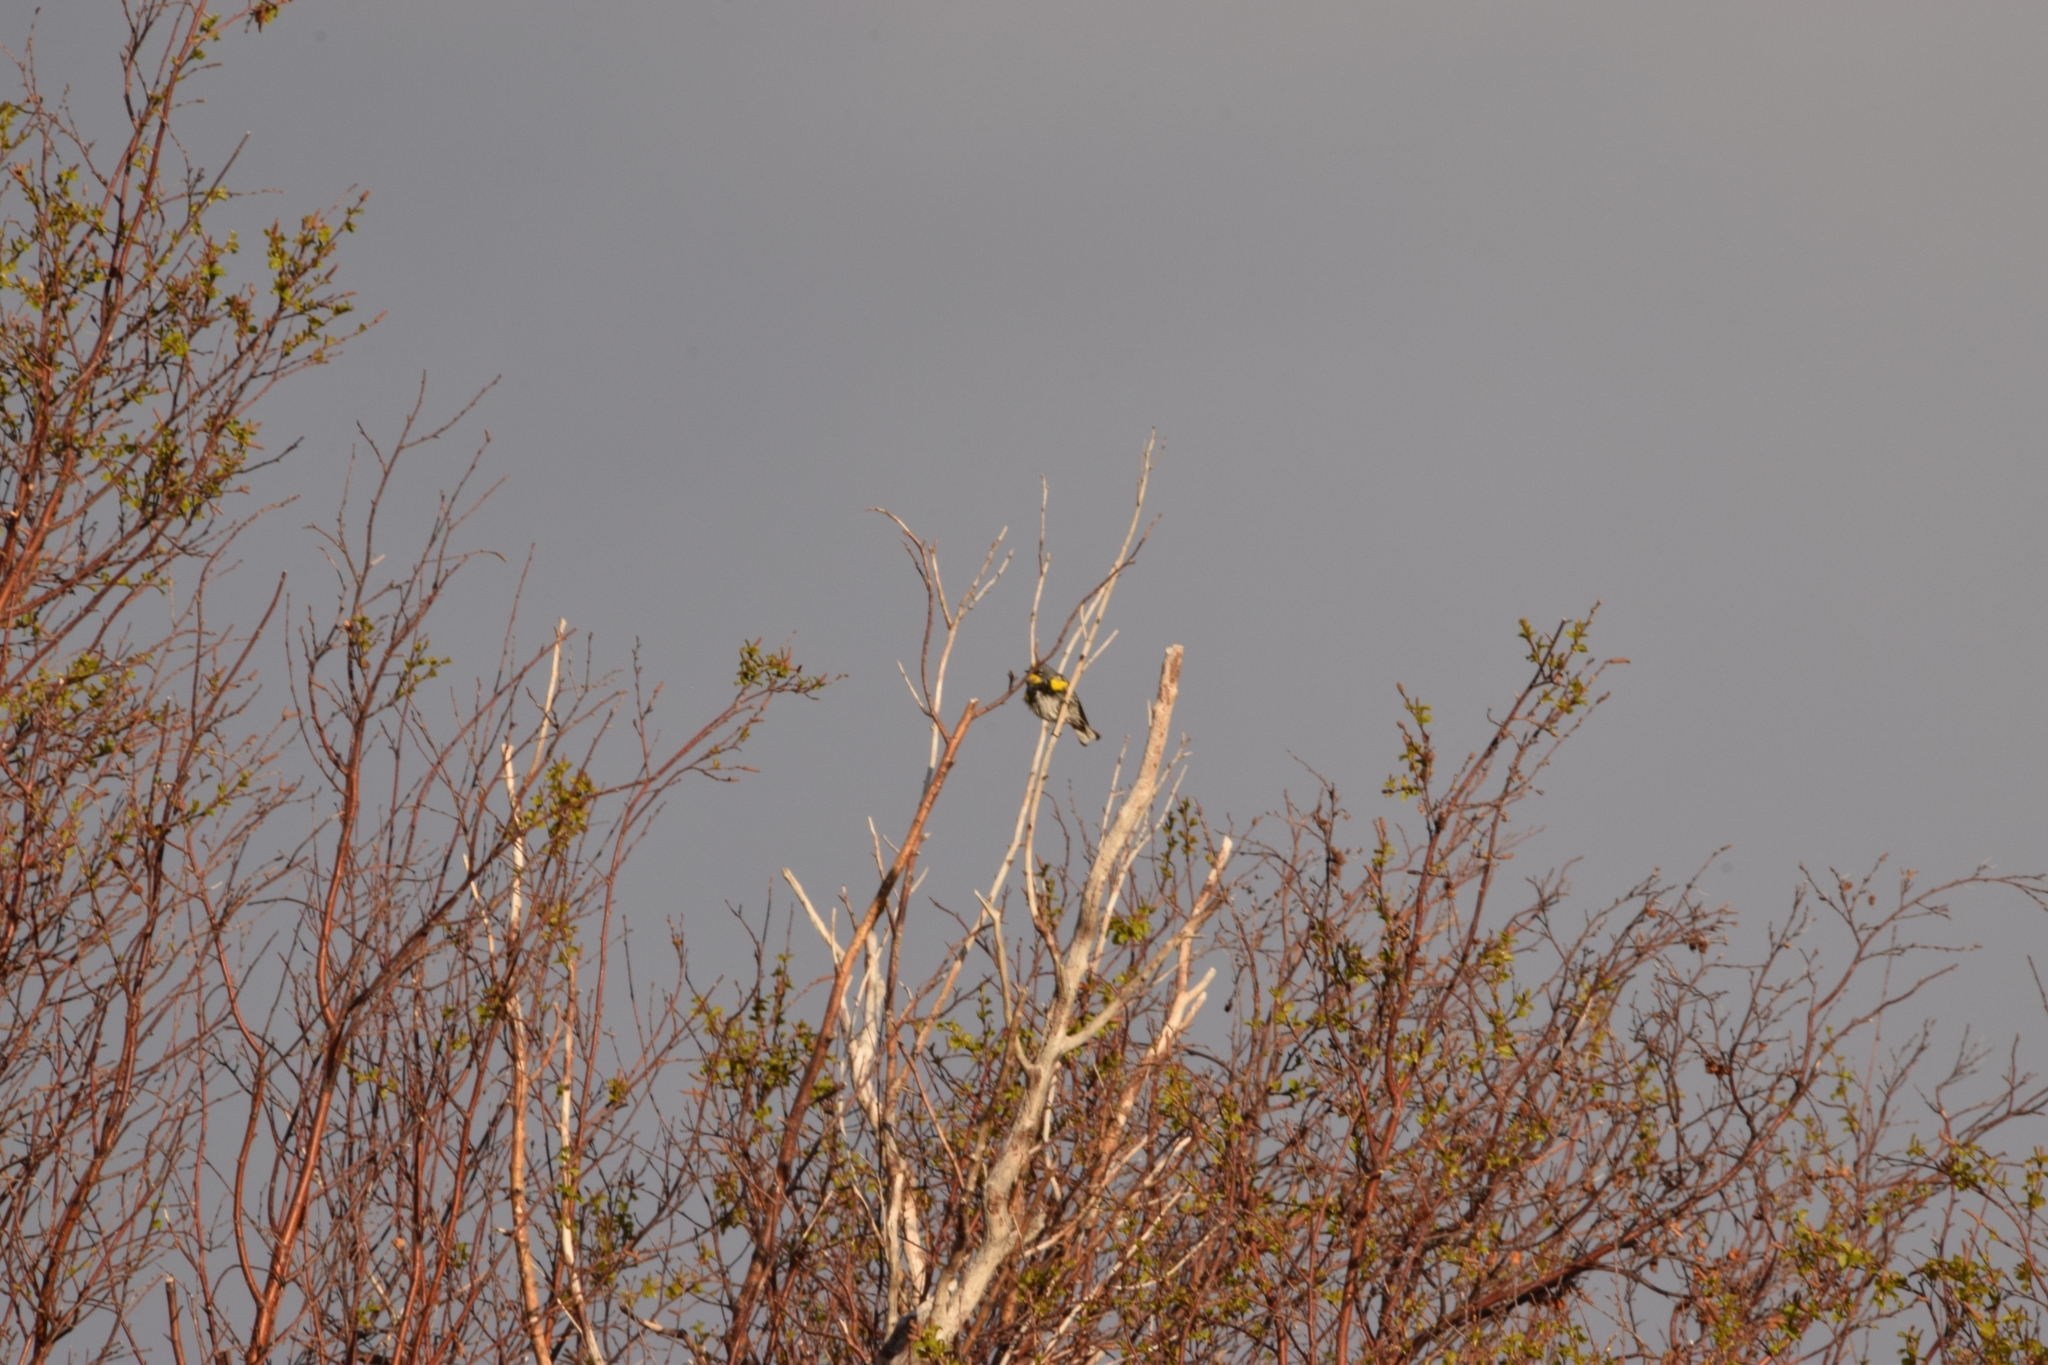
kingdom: Animalia
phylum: Chordata
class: Aves
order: Passeriformes
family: Parulidae
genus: Setophaga
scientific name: Setophaga auduboni
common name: Audubon's warbler
